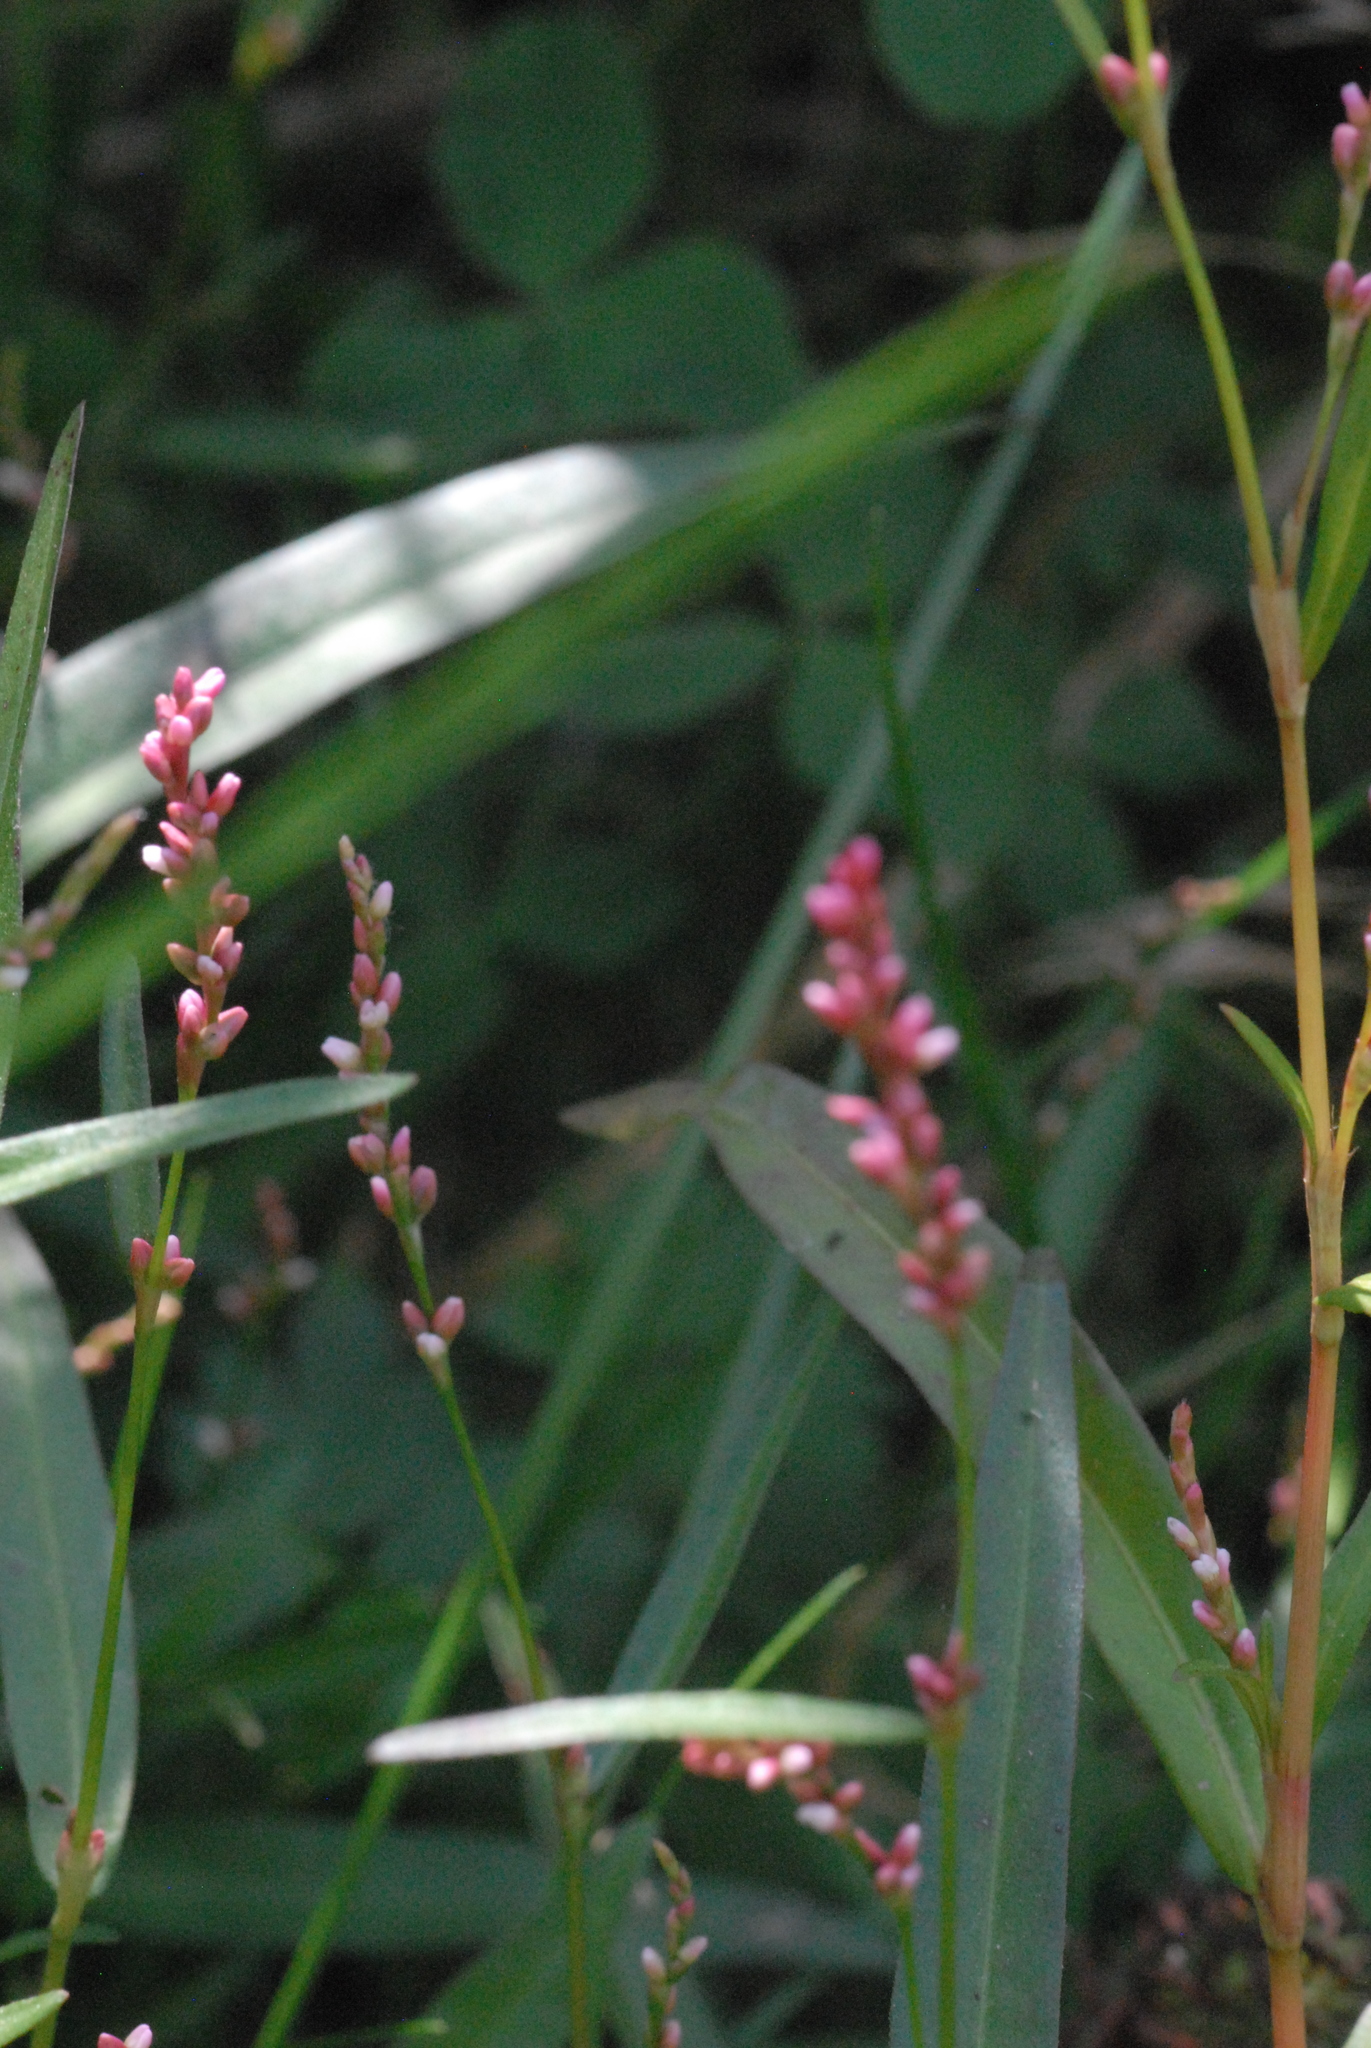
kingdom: Plantae
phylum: Tracheophyta
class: Magnoliopsida
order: Caryophyllales
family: Polygonaceae
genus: Persicaria
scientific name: Persicaria minor
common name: Small water-pepper
